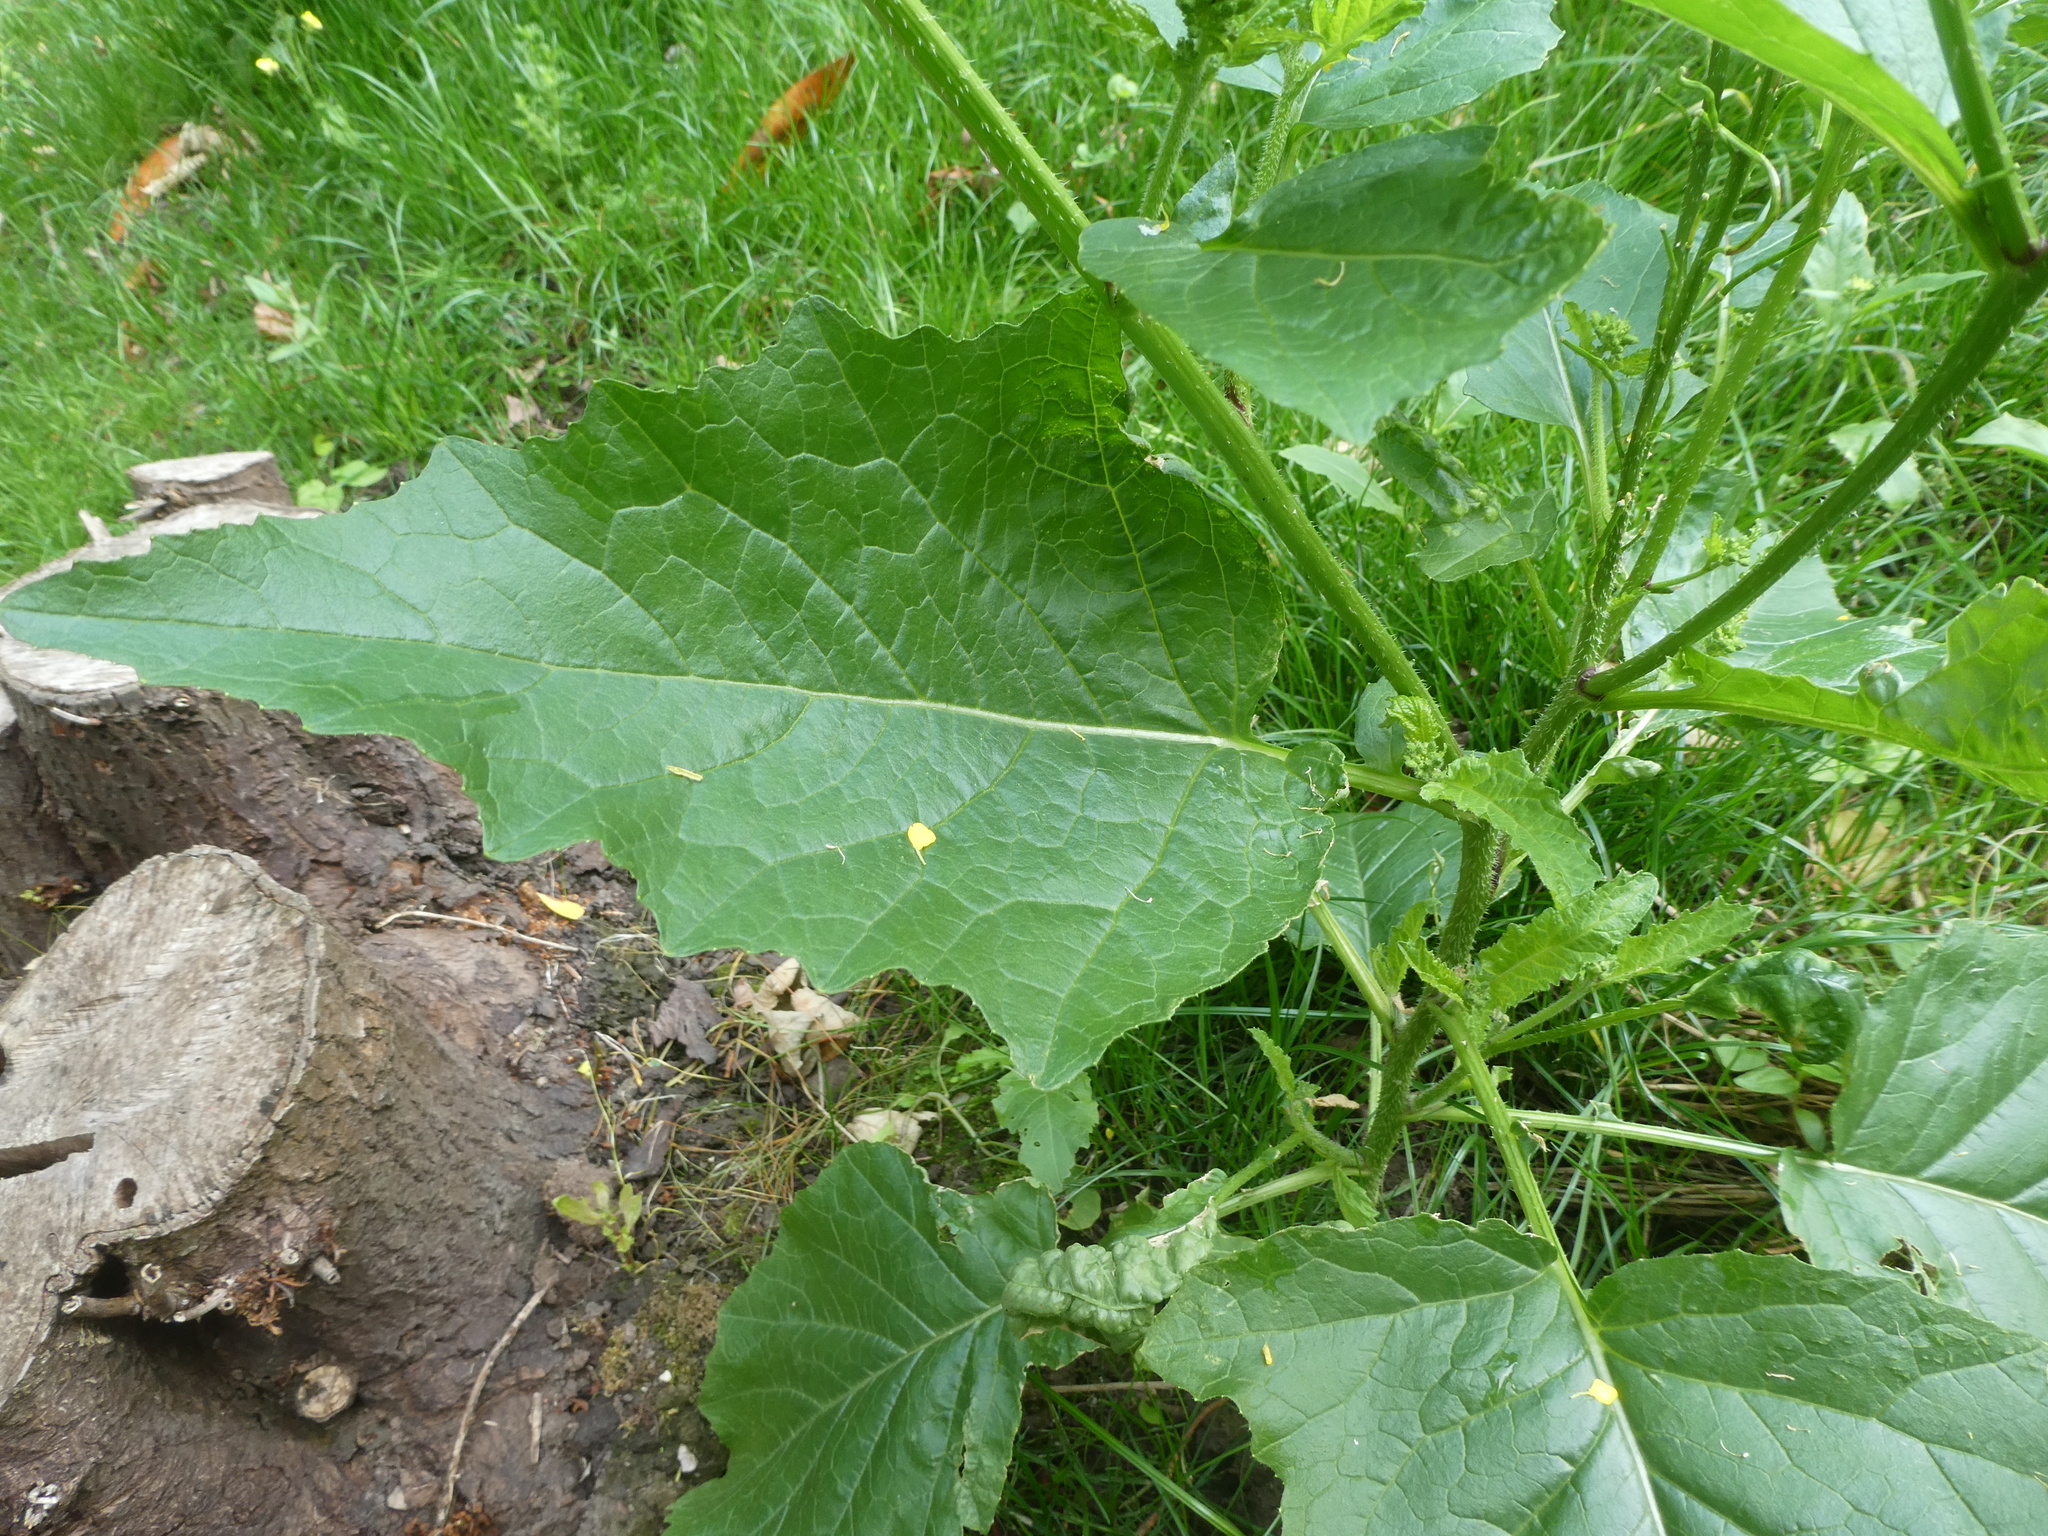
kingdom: Plantae
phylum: Tracheophyta
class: Magnoliopsida
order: Brassicales
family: Brassicaceae
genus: Sinapis
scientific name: Sinapis arvensis
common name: Charlock
